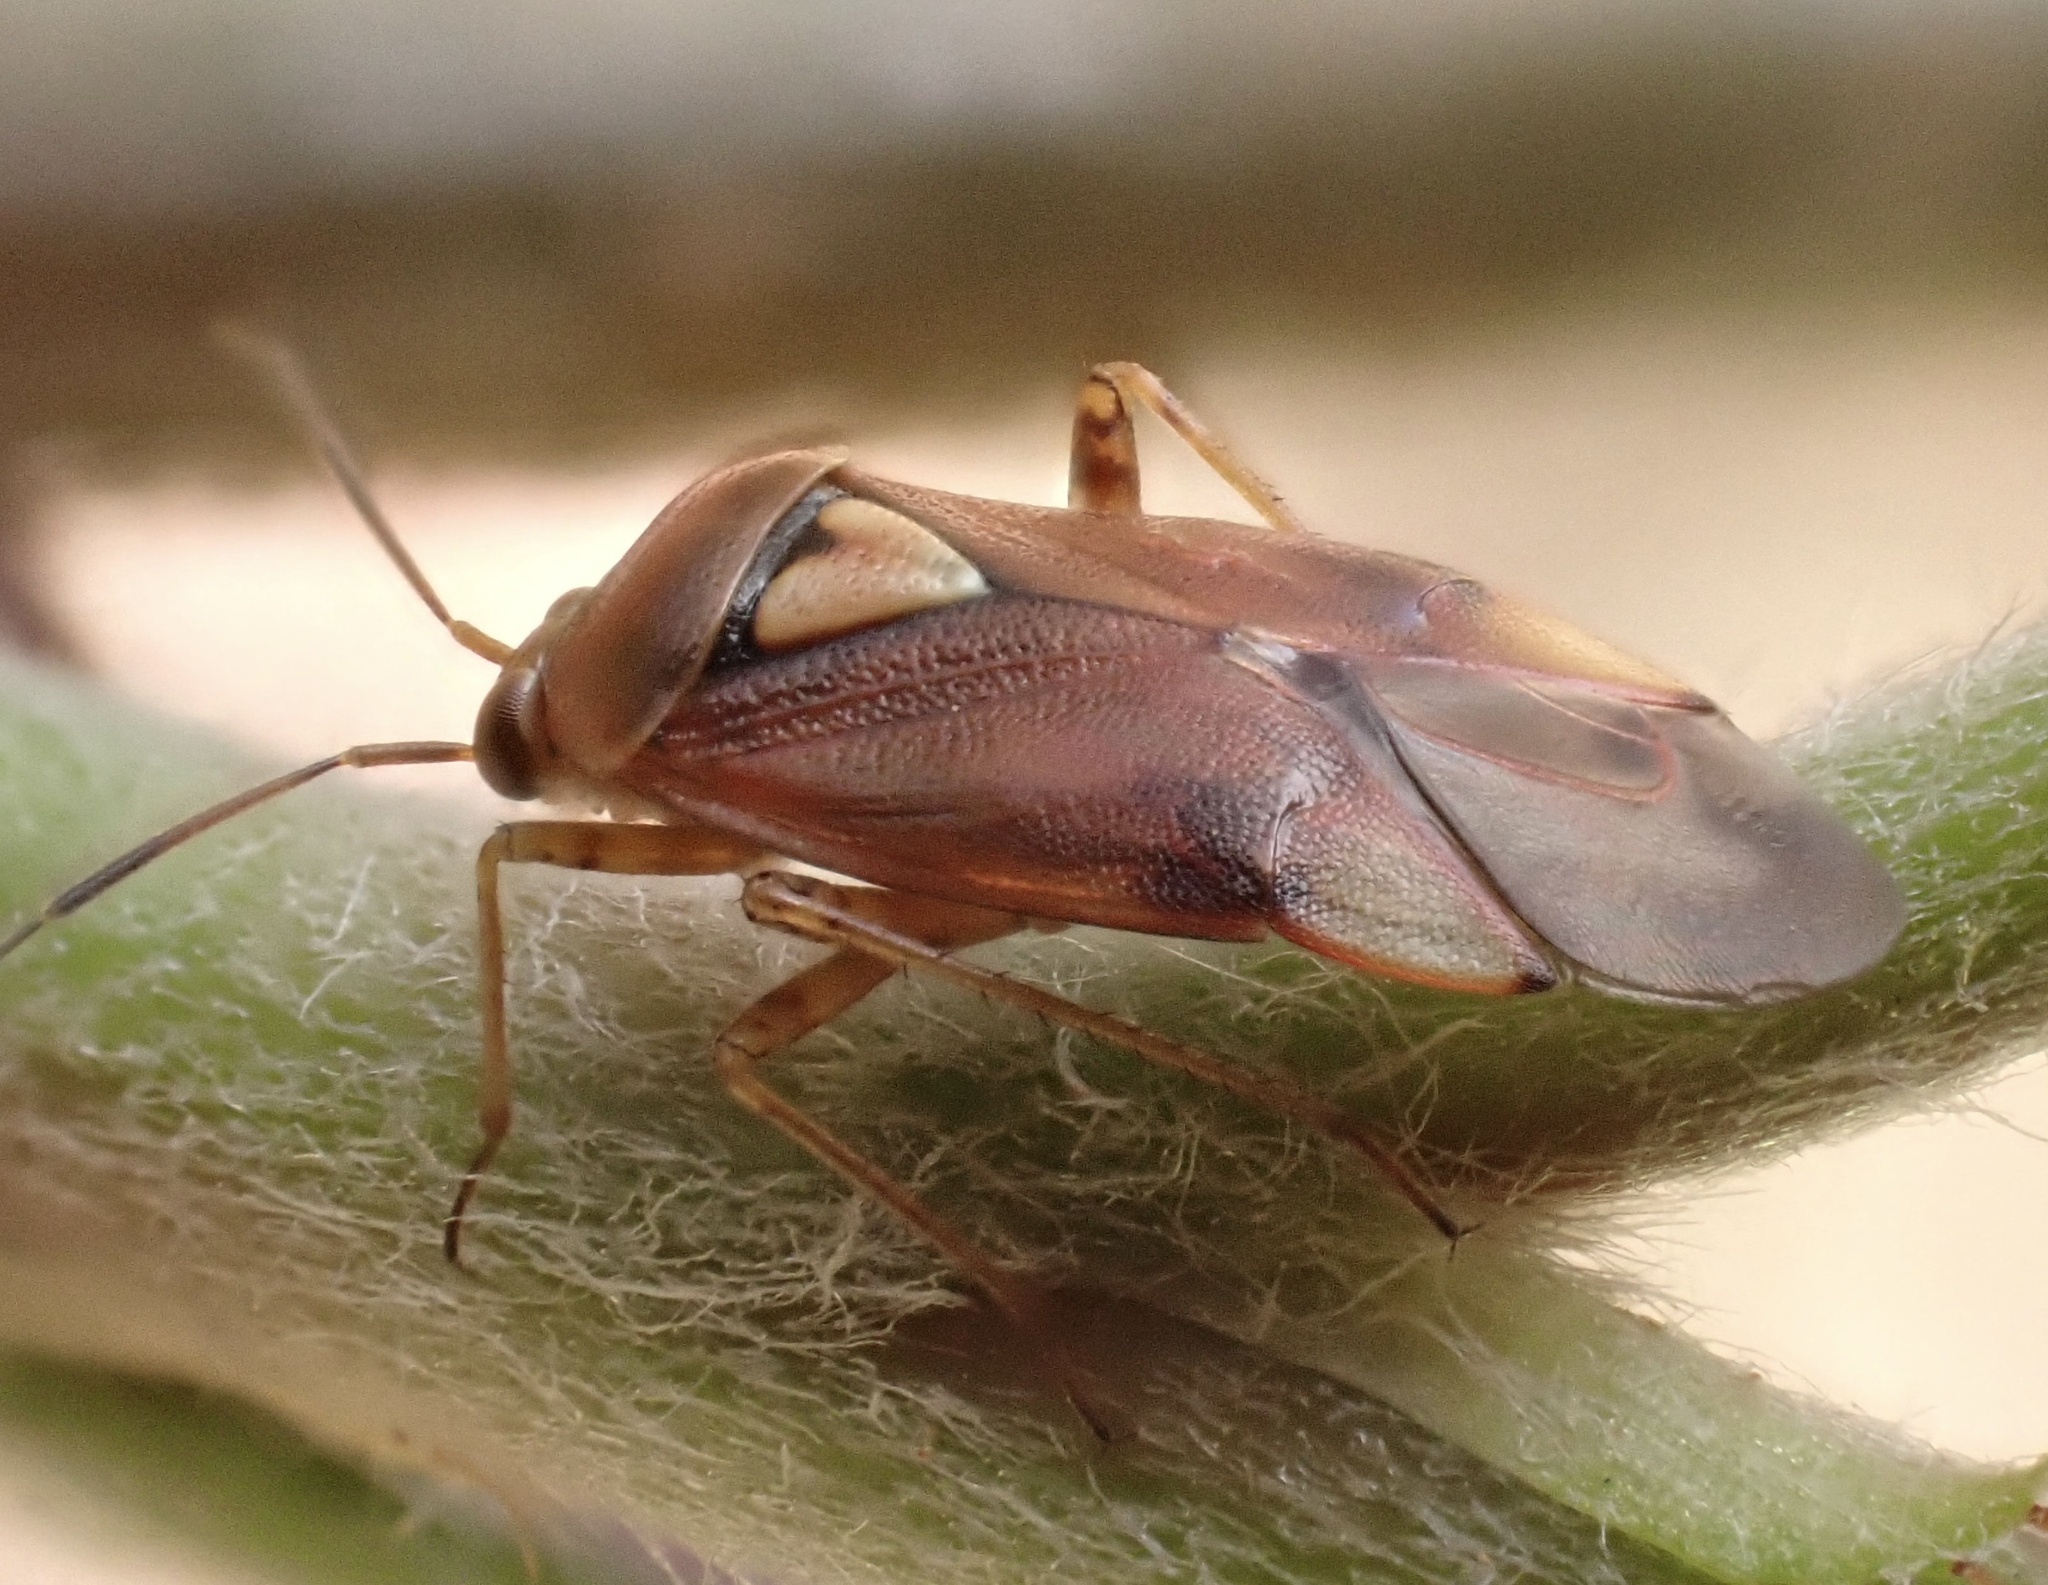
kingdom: Animalia
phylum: Arthropoda
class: Insecta
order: Hemiptera
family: Miridae
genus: Lygus
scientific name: Lygus pratensis
